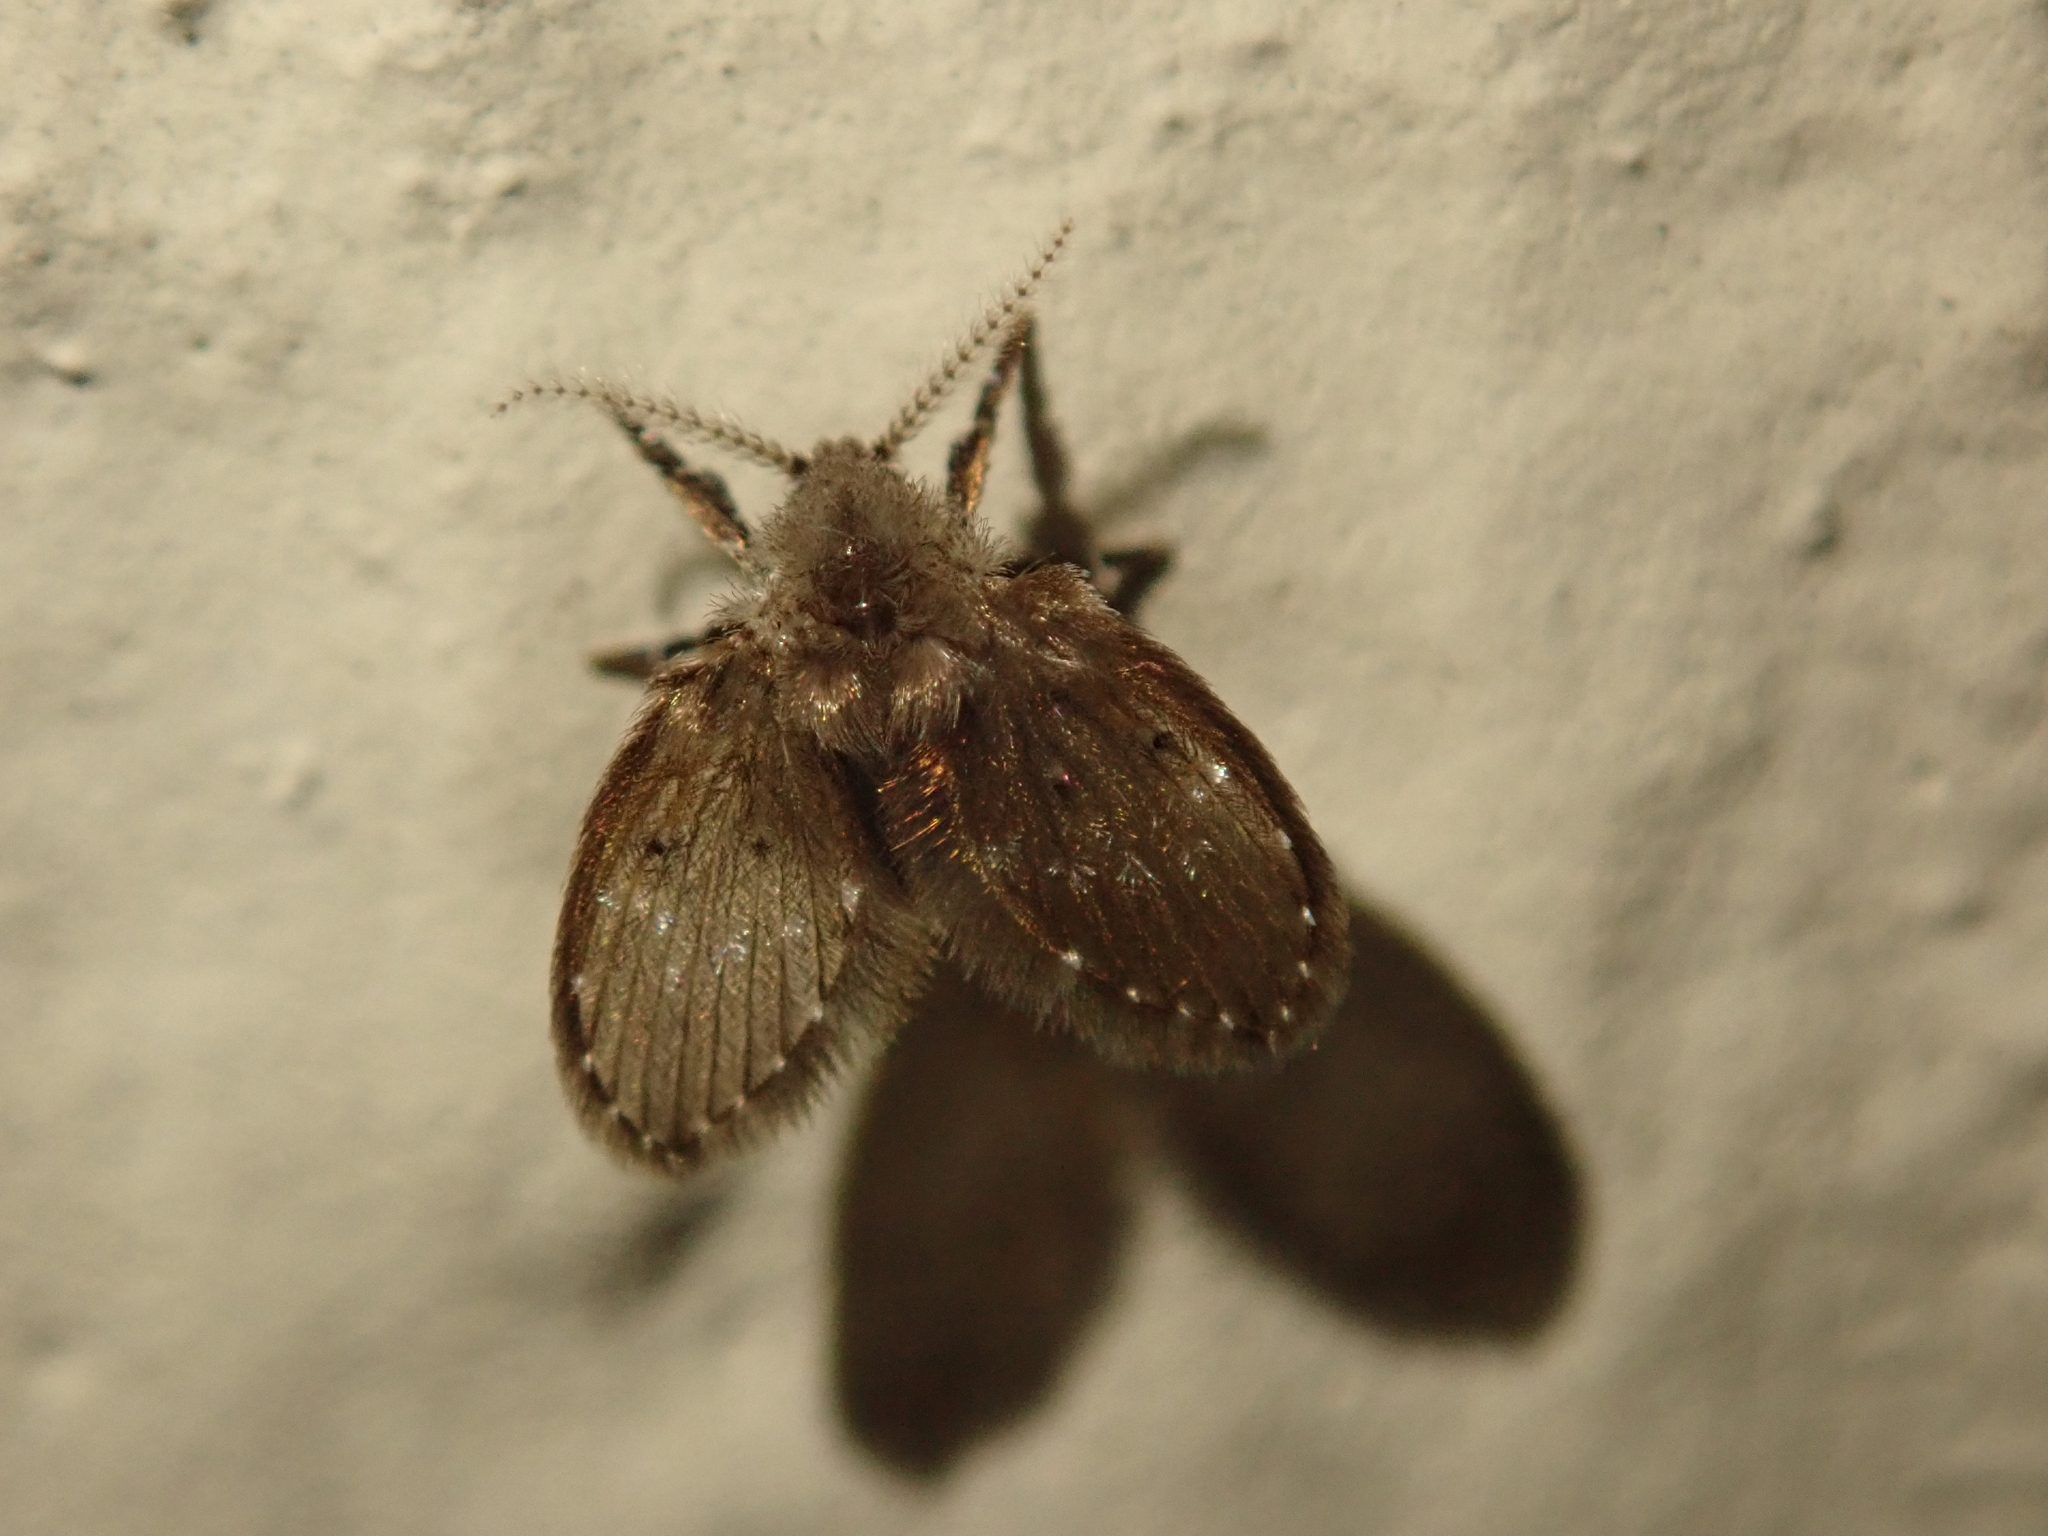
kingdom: Animalia
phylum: Arthropoda
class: Insecta
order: Diptera
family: Psychodidae
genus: Clogmia
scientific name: Clogmia albipunctatus
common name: White-spotted moth fly
